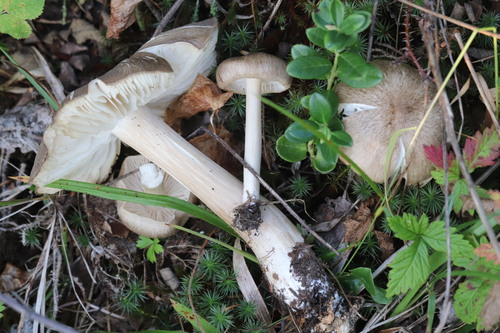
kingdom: Fungi
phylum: Basidiomycota
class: Agaricomycetes
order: Agaricales
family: Tricholomataceae
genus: Megacollybia
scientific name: Megacollybia platyphylla
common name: Whitelaced shank
